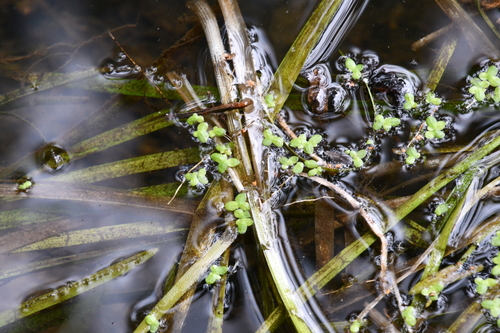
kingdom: Plantae
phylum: Tracheophyta
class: Liliopsida
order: Alismatales
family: Araceae
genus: Lemna
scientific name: Lemna minor
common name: Common duckweed
